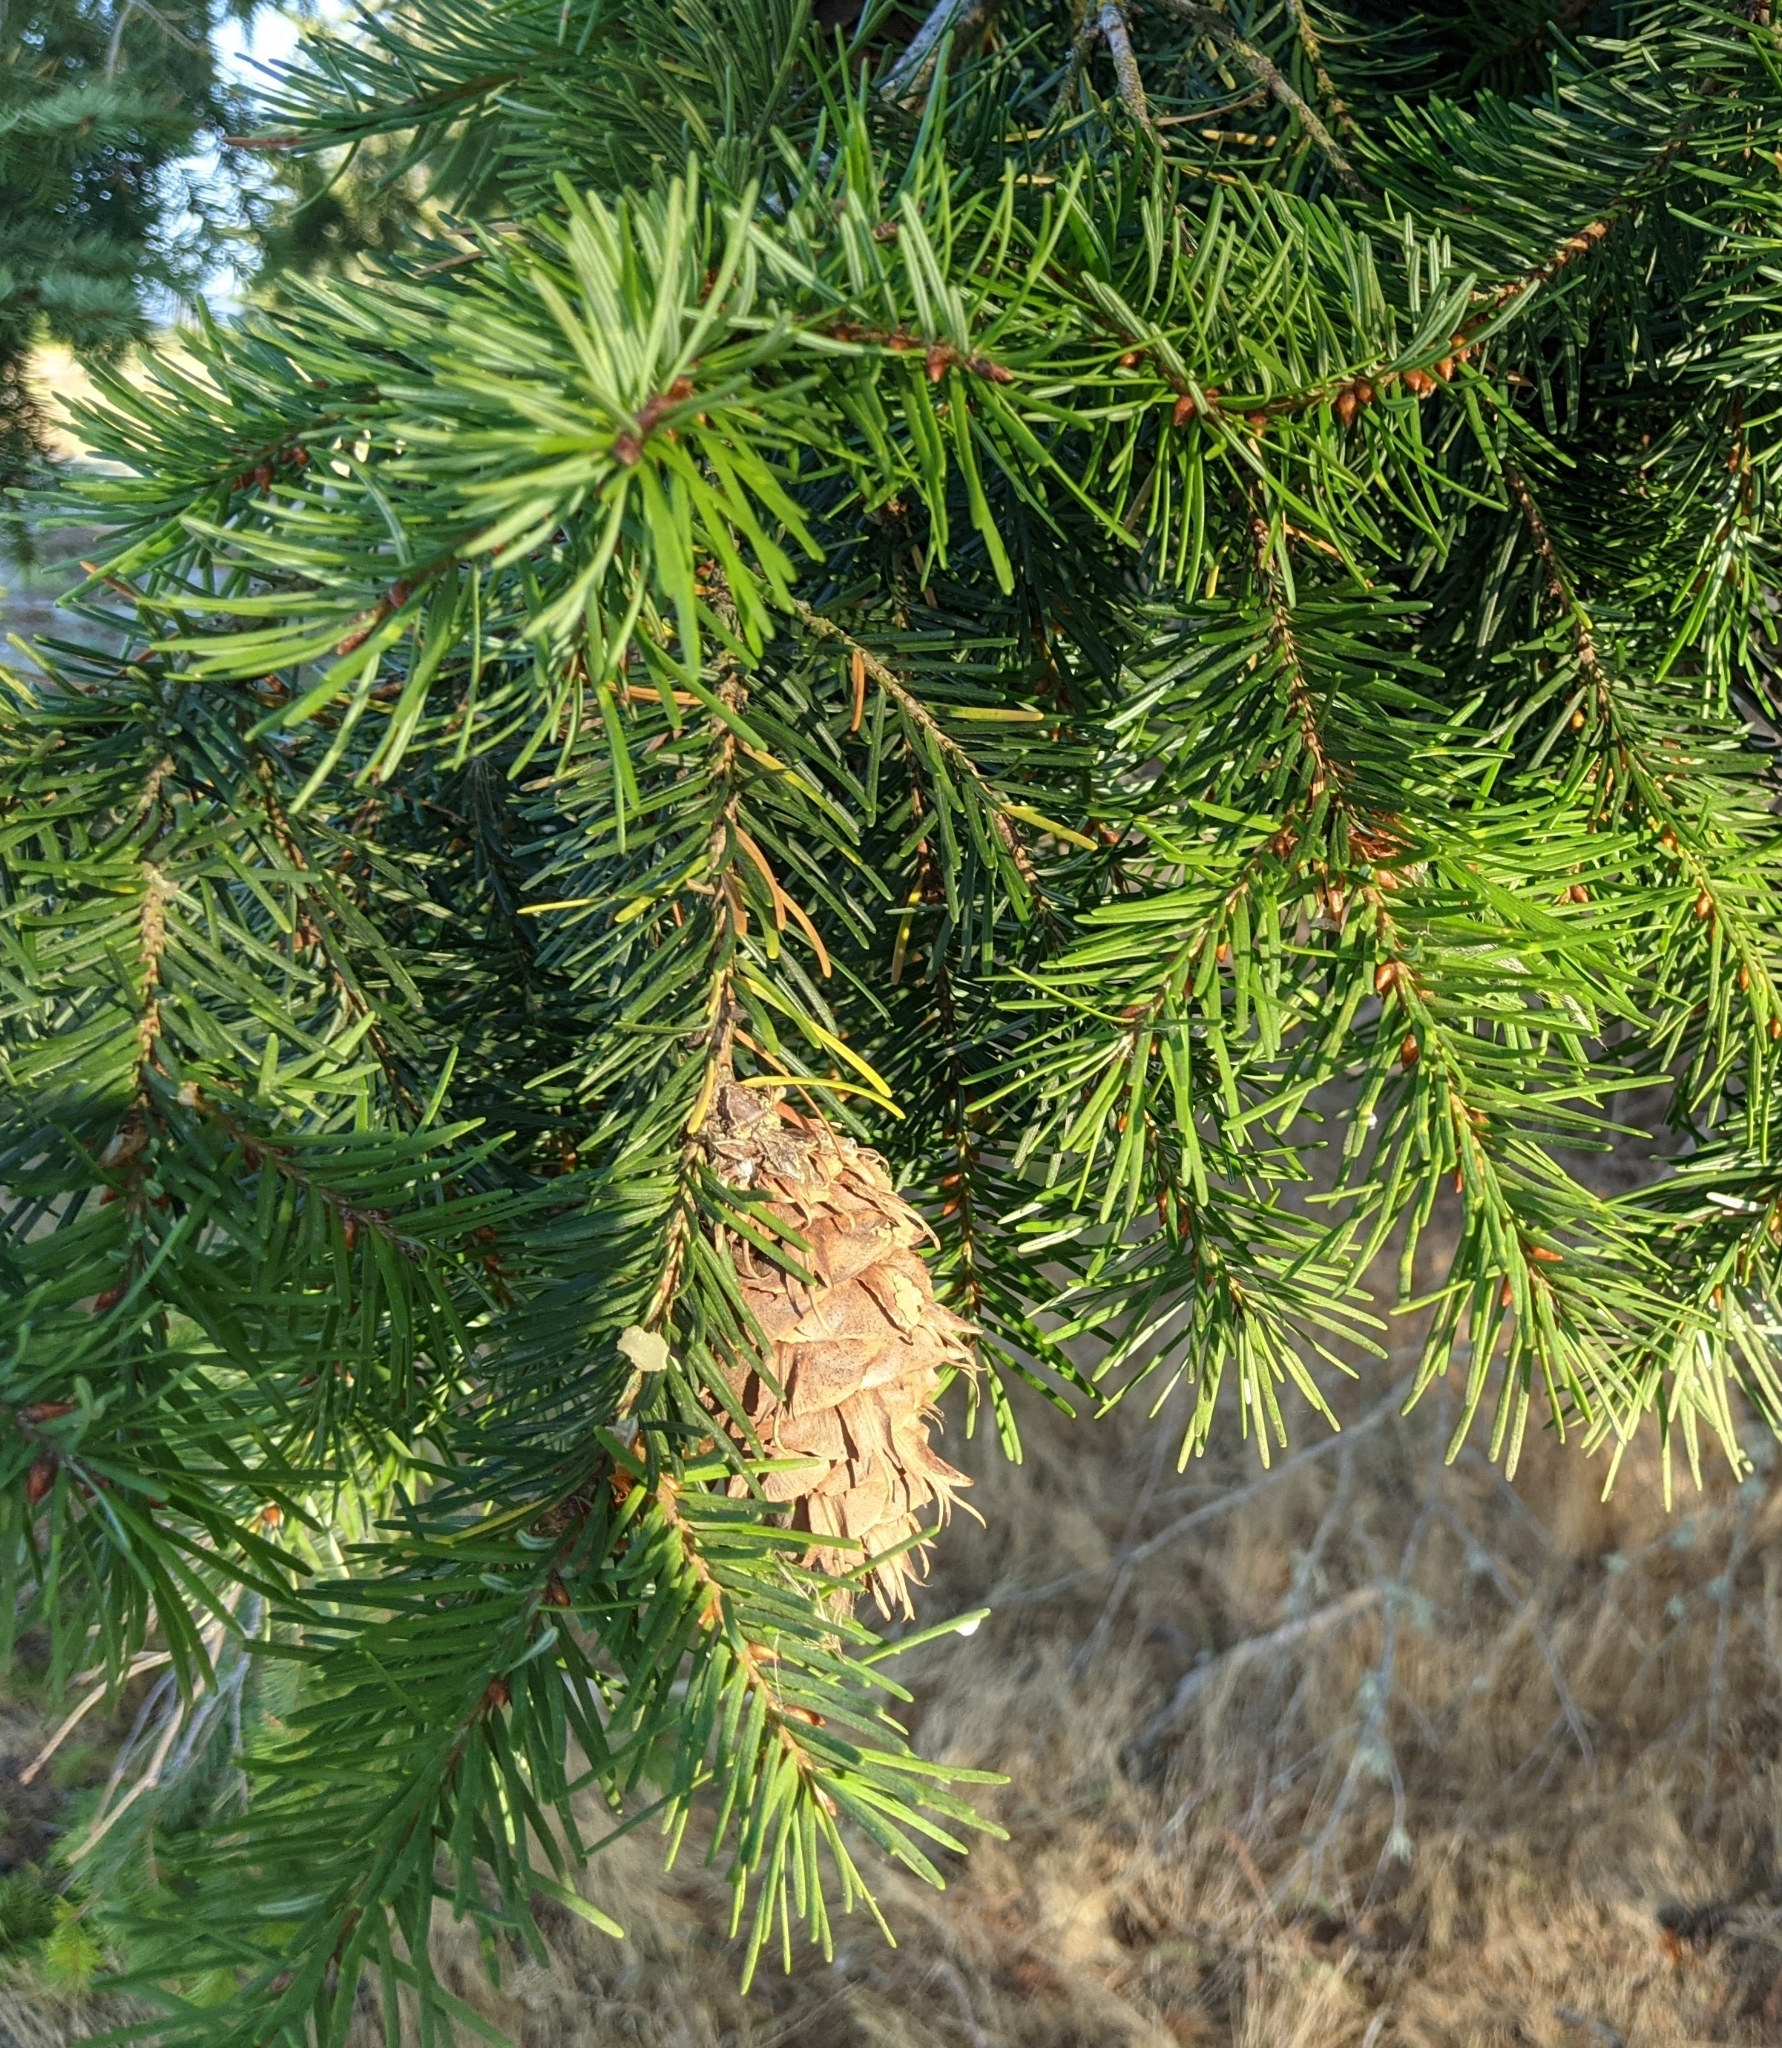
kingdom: Plantae
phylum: Tracheophyta
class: Pinopsida
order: Pinales
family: Pinaceae
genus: Pseudotsuga
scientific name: Pseudotsuga menziesii
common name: Douglas fir
